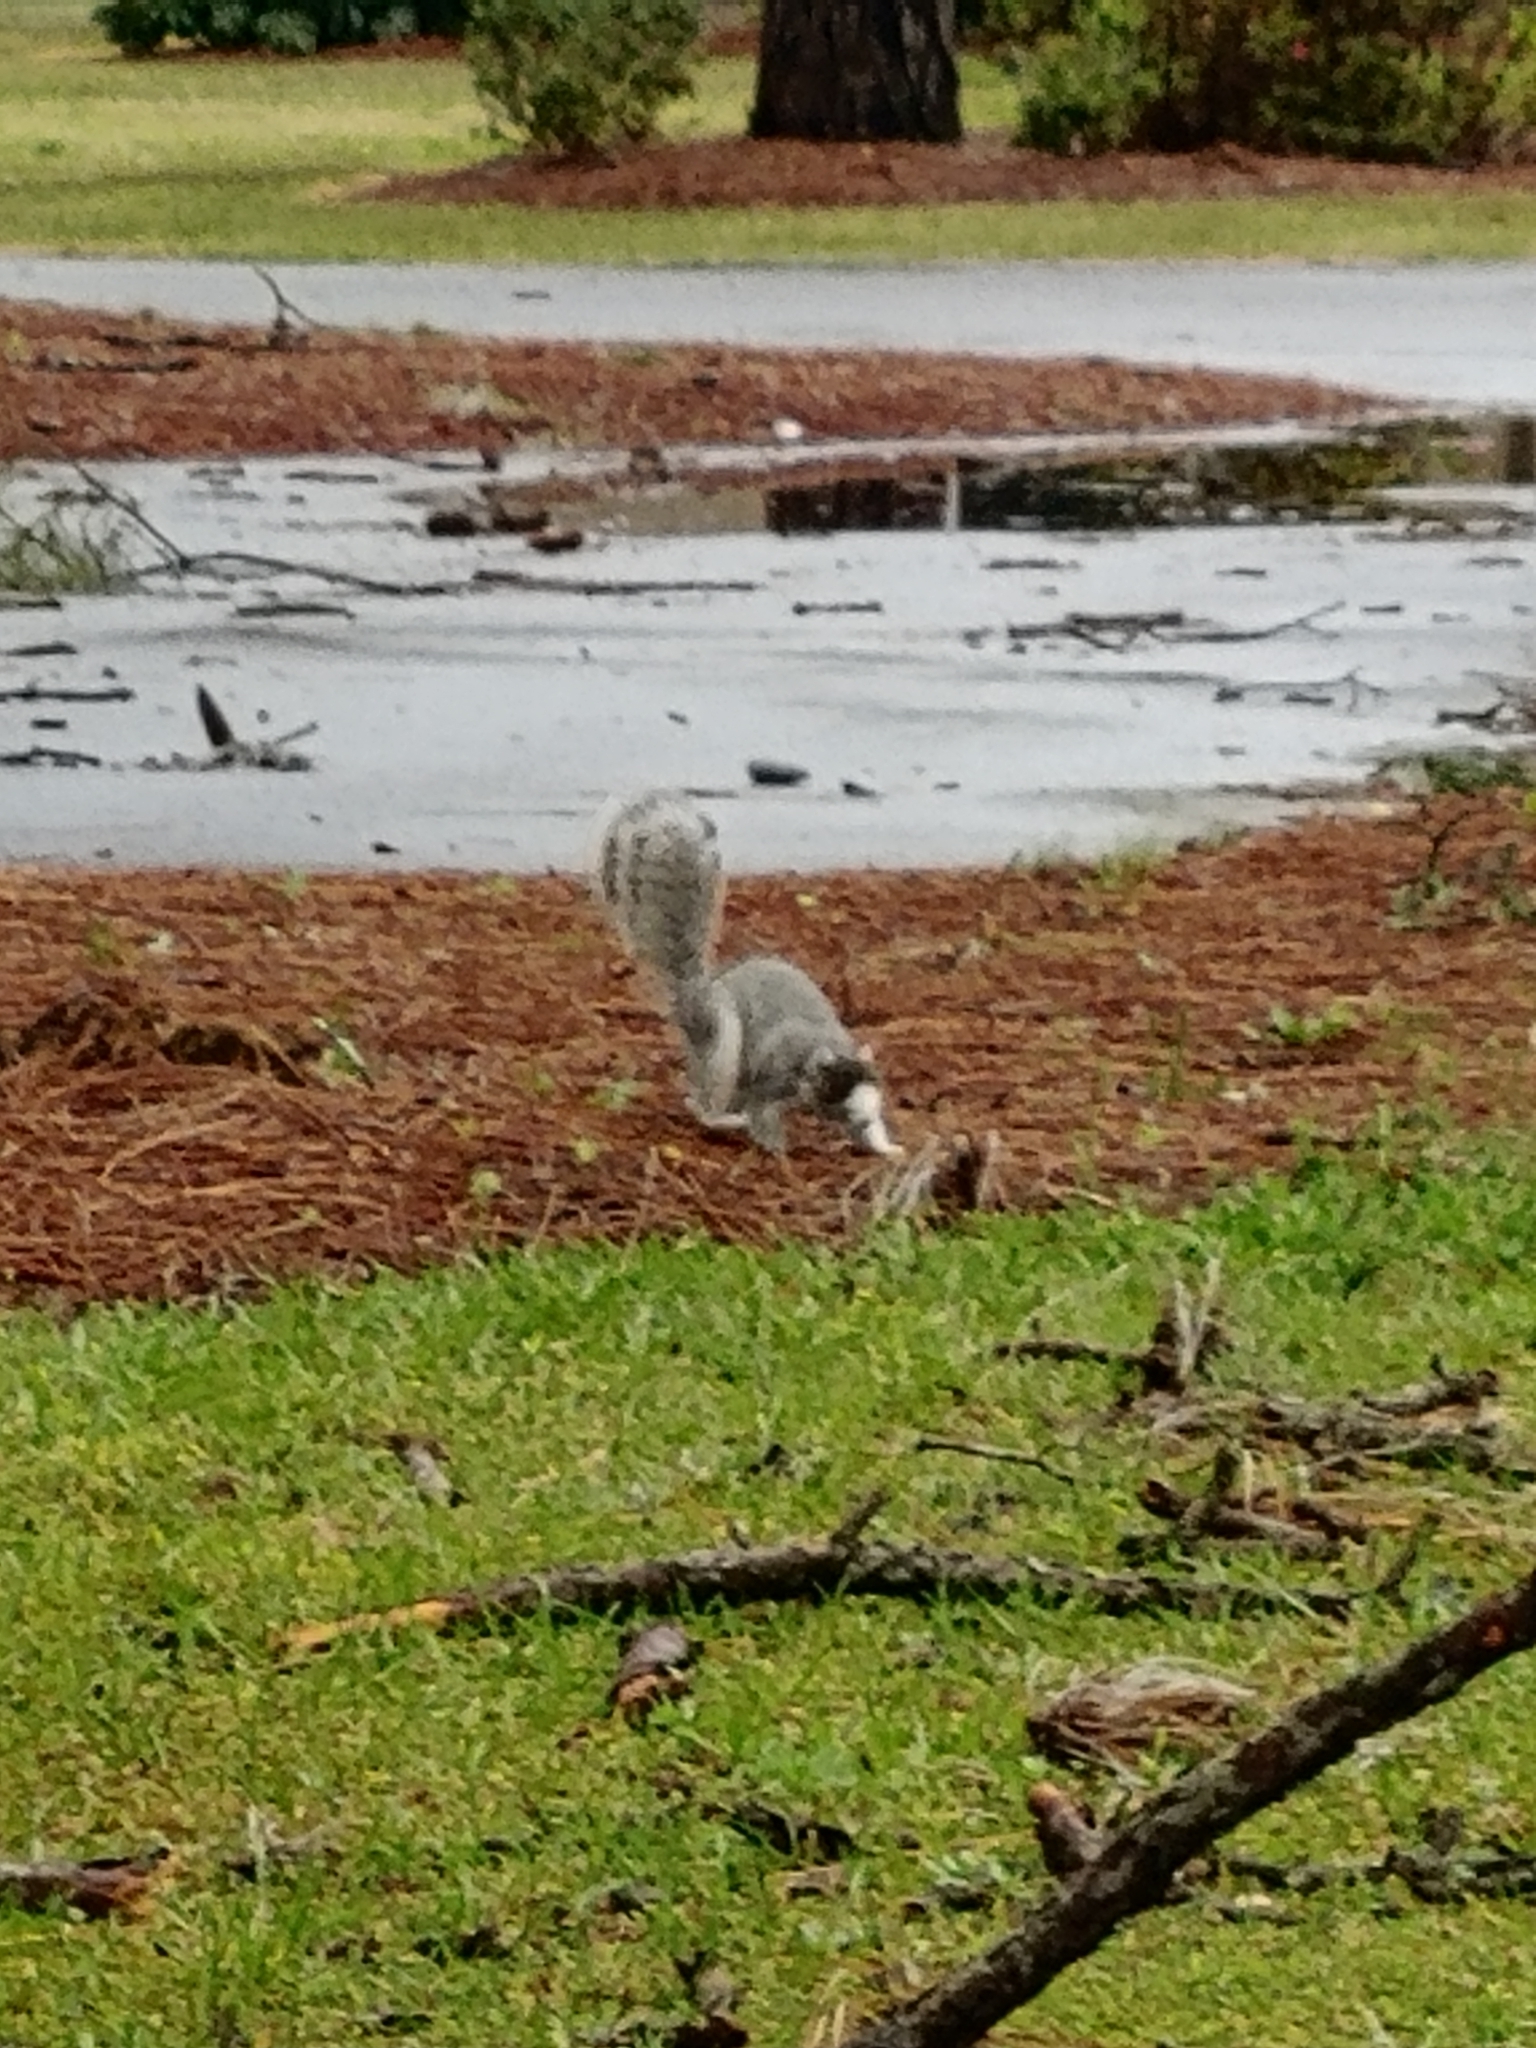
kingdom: Animalia
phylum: Chordata
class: Mammalia
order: Rodentia
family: Sciuridae
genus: Sciurus
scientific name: Sciurus niger
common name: Fox squirrel
